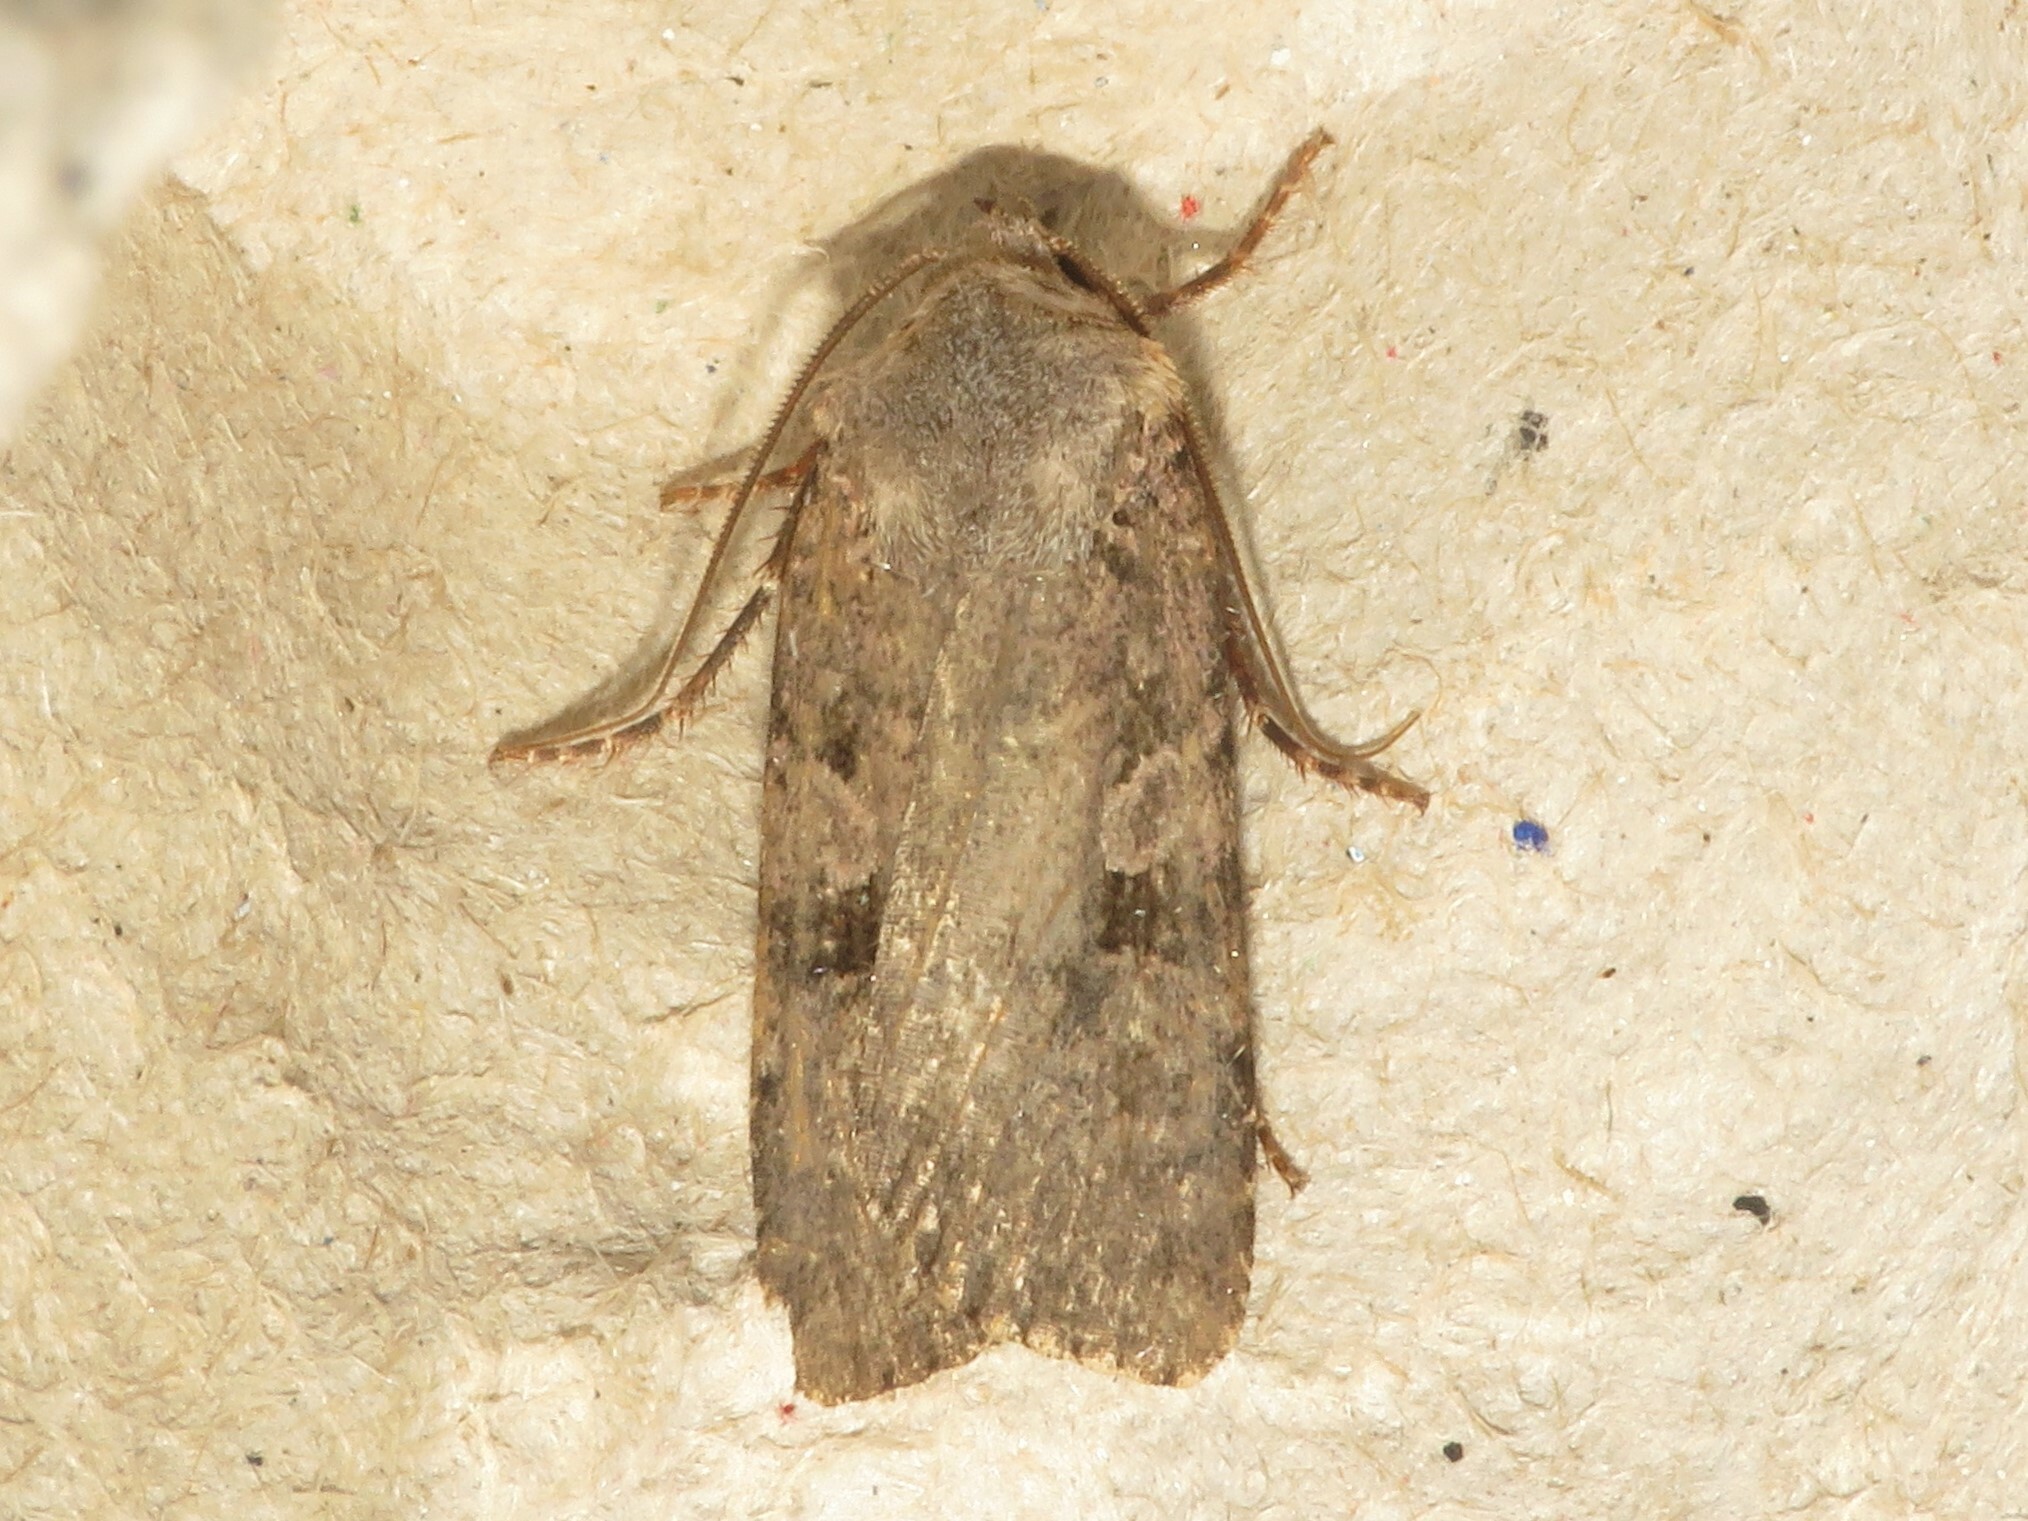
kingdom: Animalia
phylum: Arthropoda
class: Insecta
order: Lepidoptera
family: Noctuidae
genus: Euxoa
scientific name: Euxoa tessellata
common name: Striped cutworm
